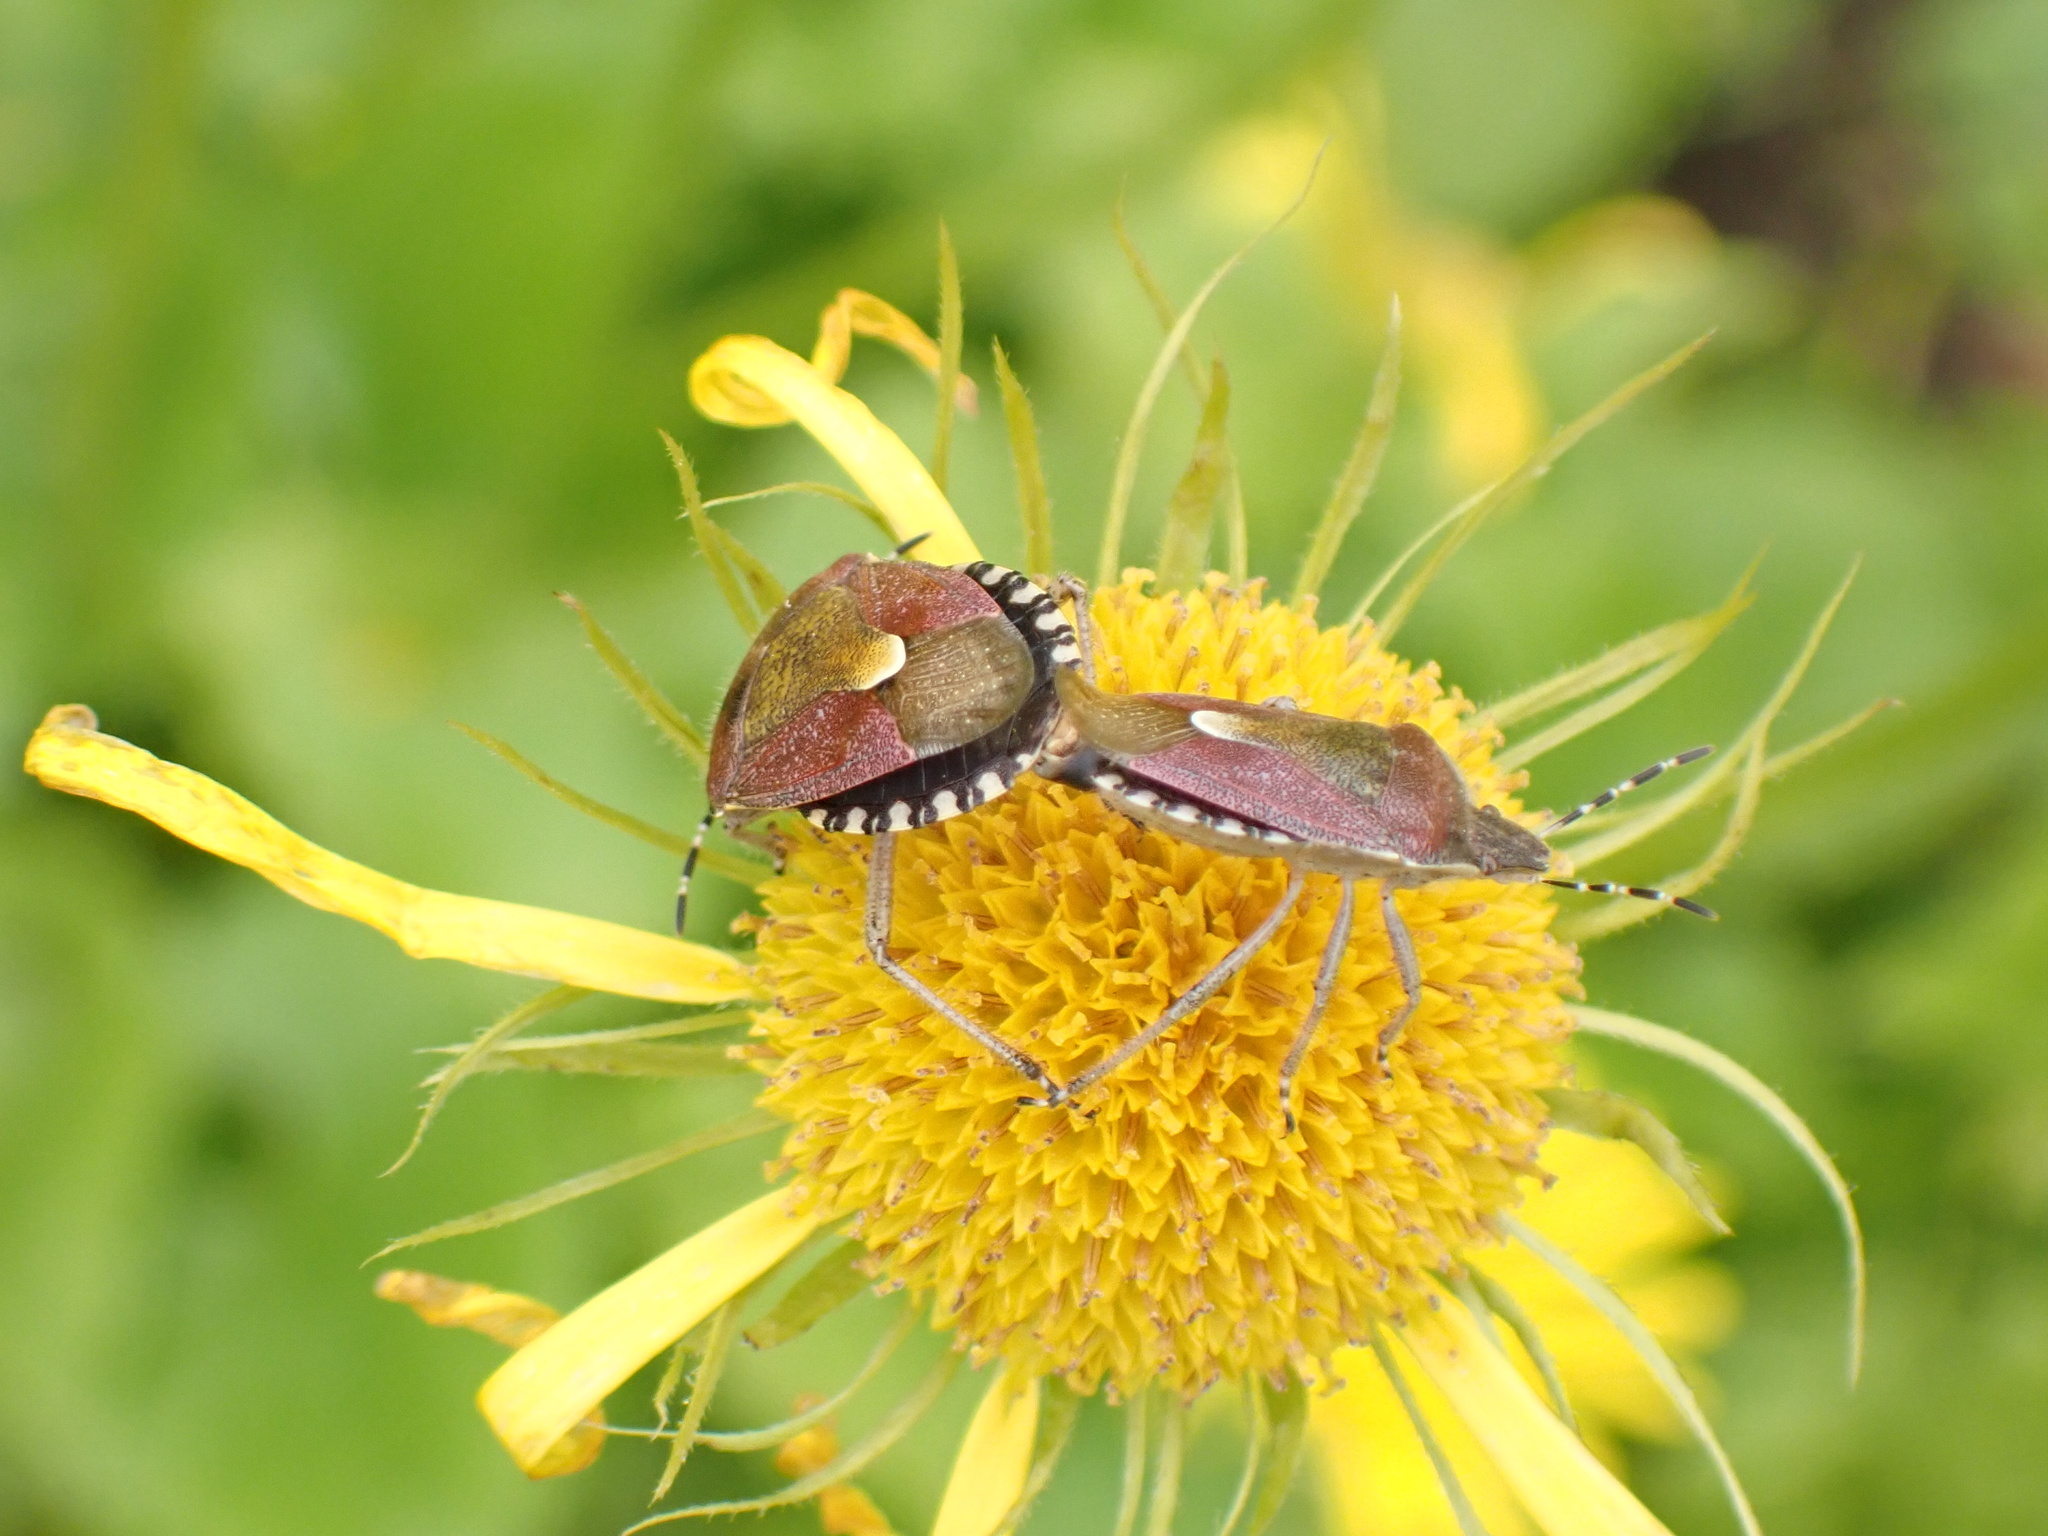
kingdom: Animalia
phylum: Arthropoda
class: Insecta
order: Hemiptera
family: Pentatomidae
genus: Dolycoris
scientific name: Dolycoris baccarum
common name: Sloe bug
